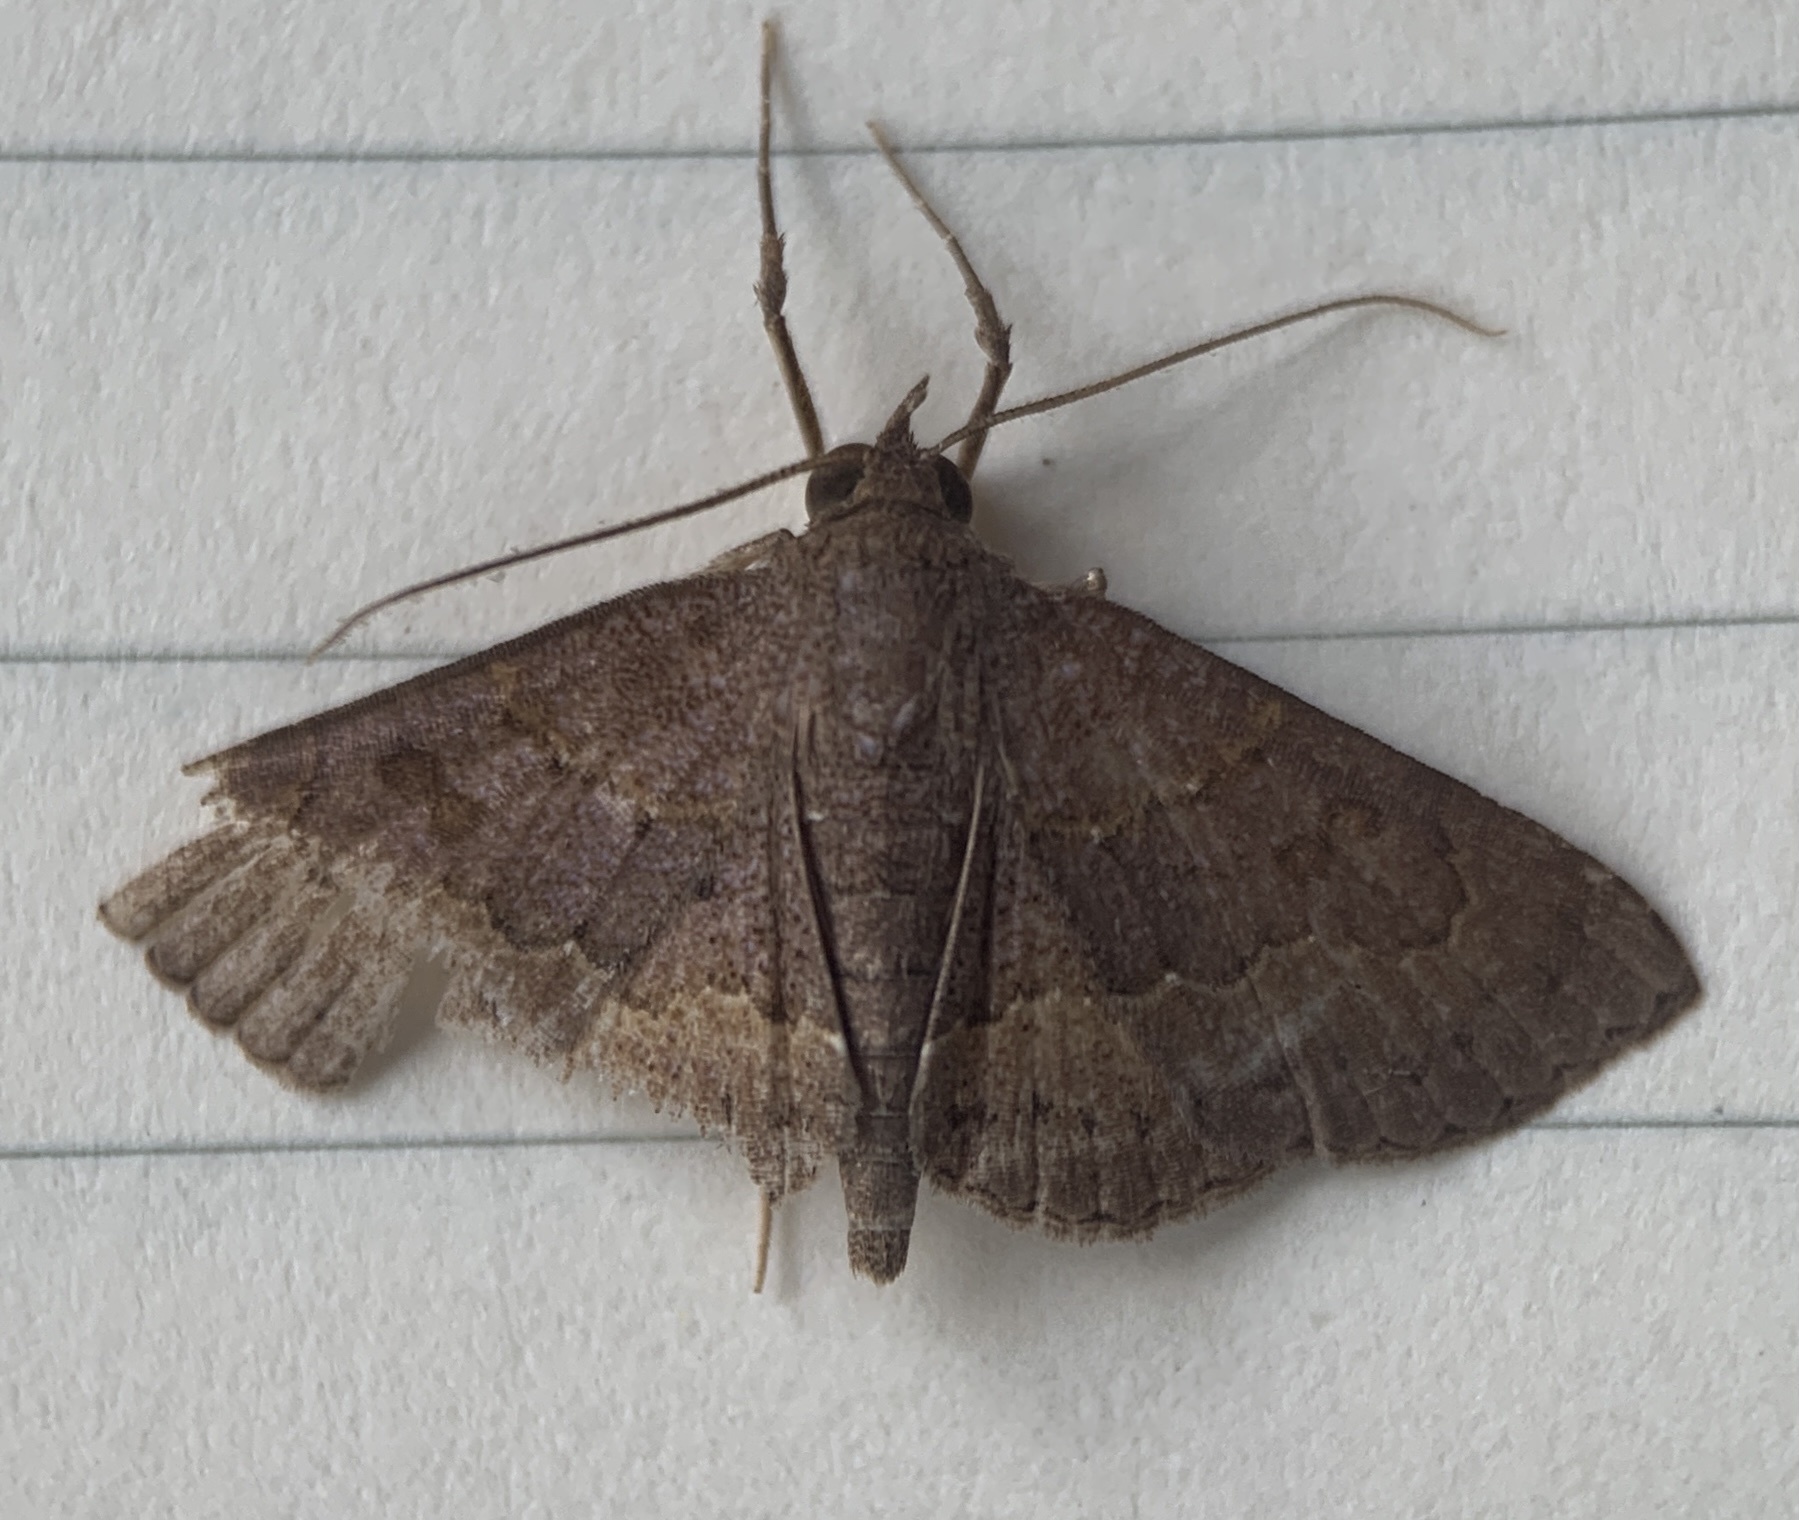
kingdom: Animalia
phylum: Arthropoda
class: Insecta
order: Lepidoptera
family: Erebidae
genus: Antiblemma
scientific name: Antiblemma perva
